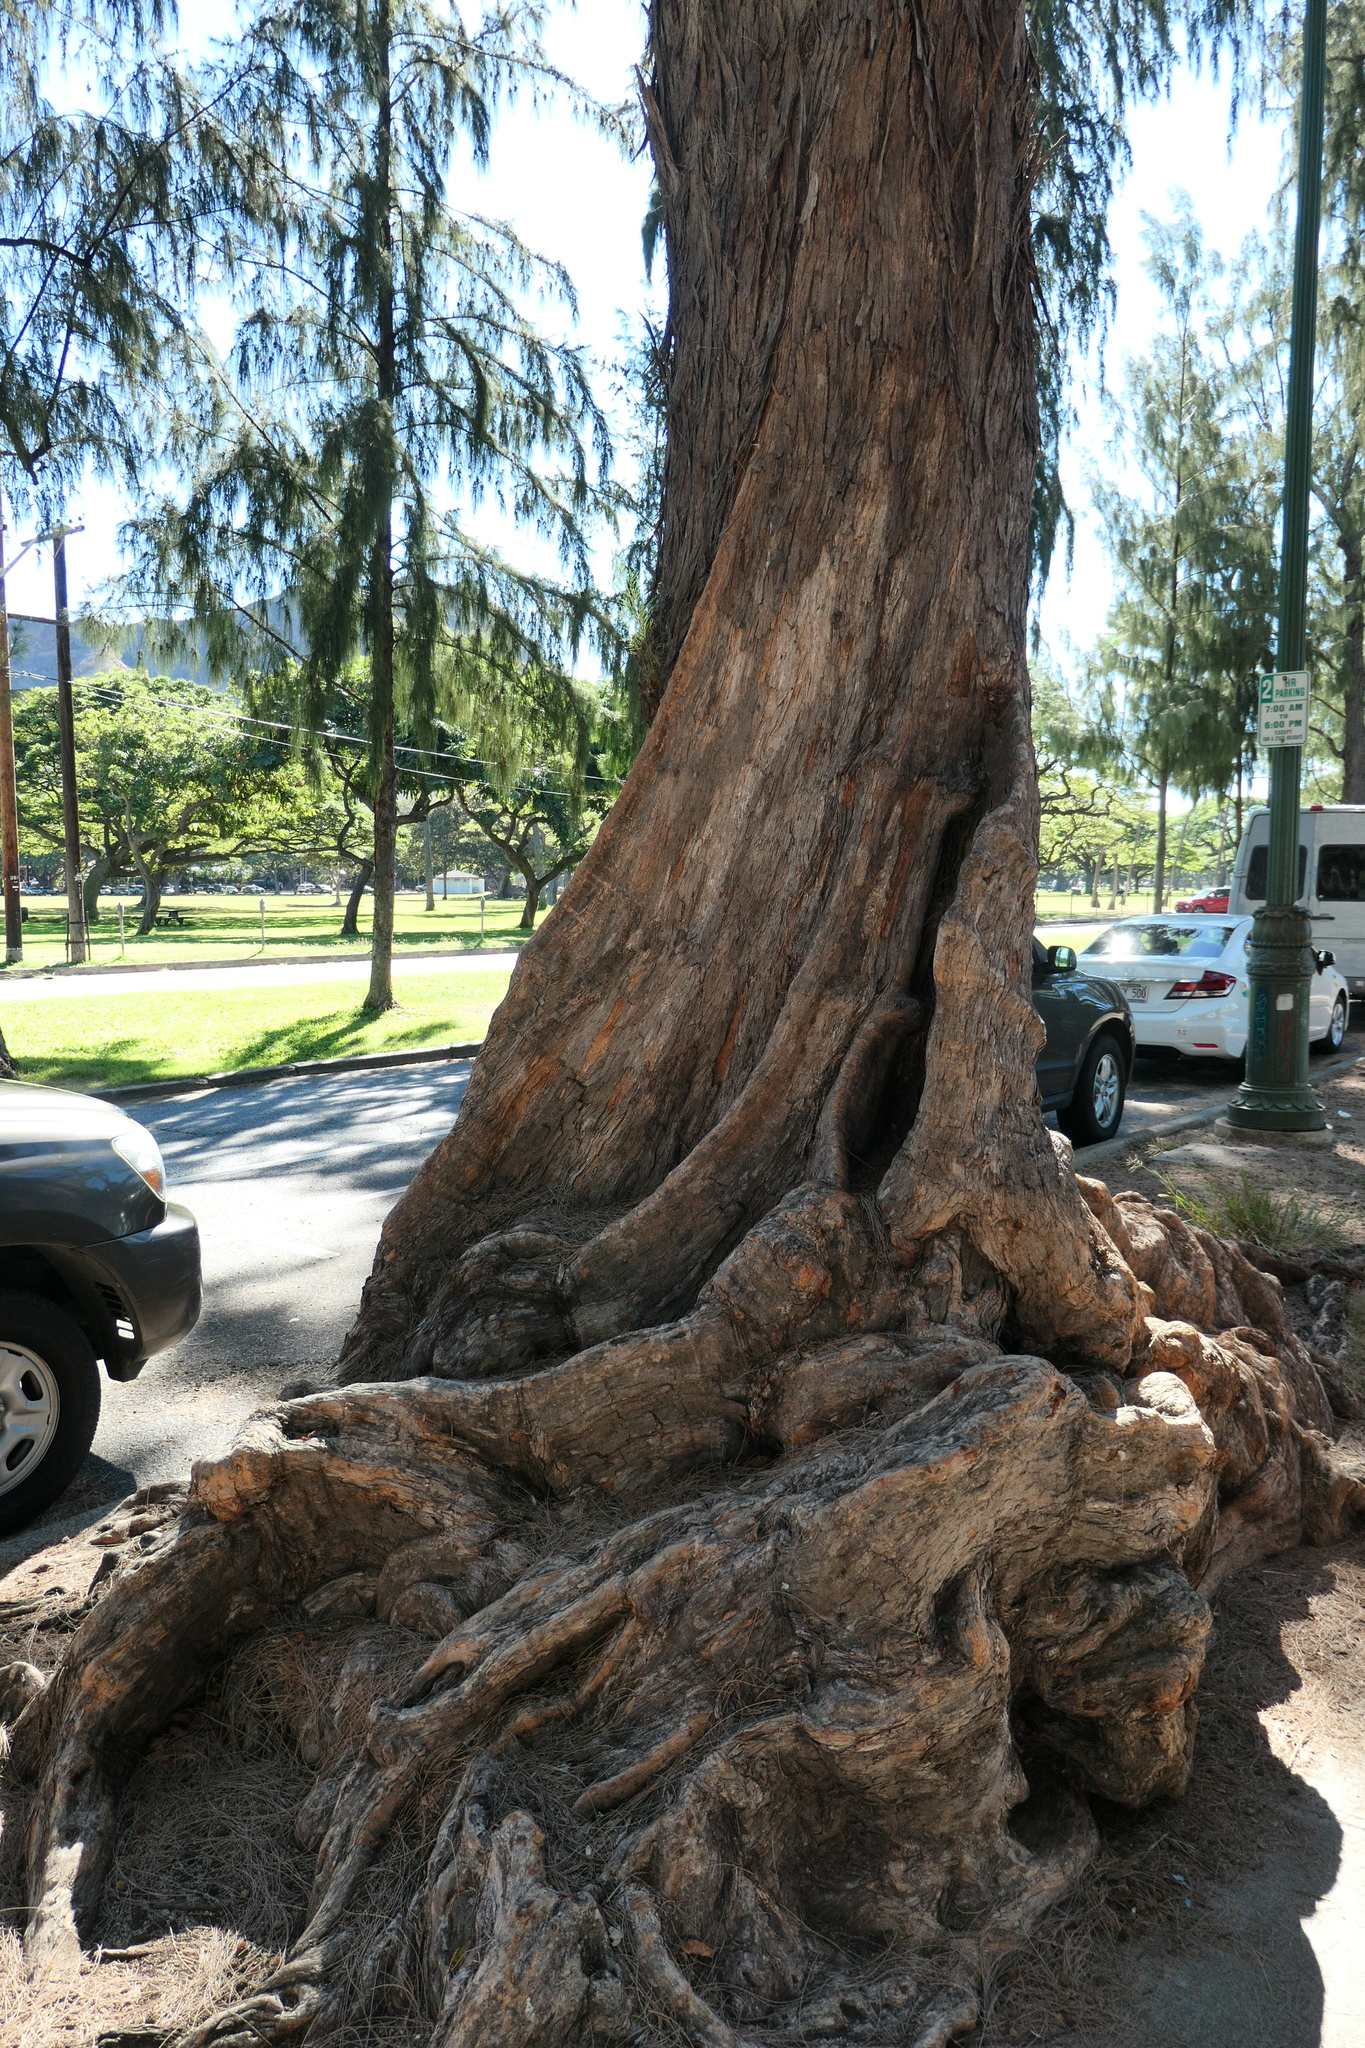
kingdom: Plantae
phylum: Tracheophyta
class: Magnoliopsida
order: Fagales
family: Casuarinaceae
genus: Casuarina
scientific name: Casuarina equisetifolia
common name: Beach sheoak
